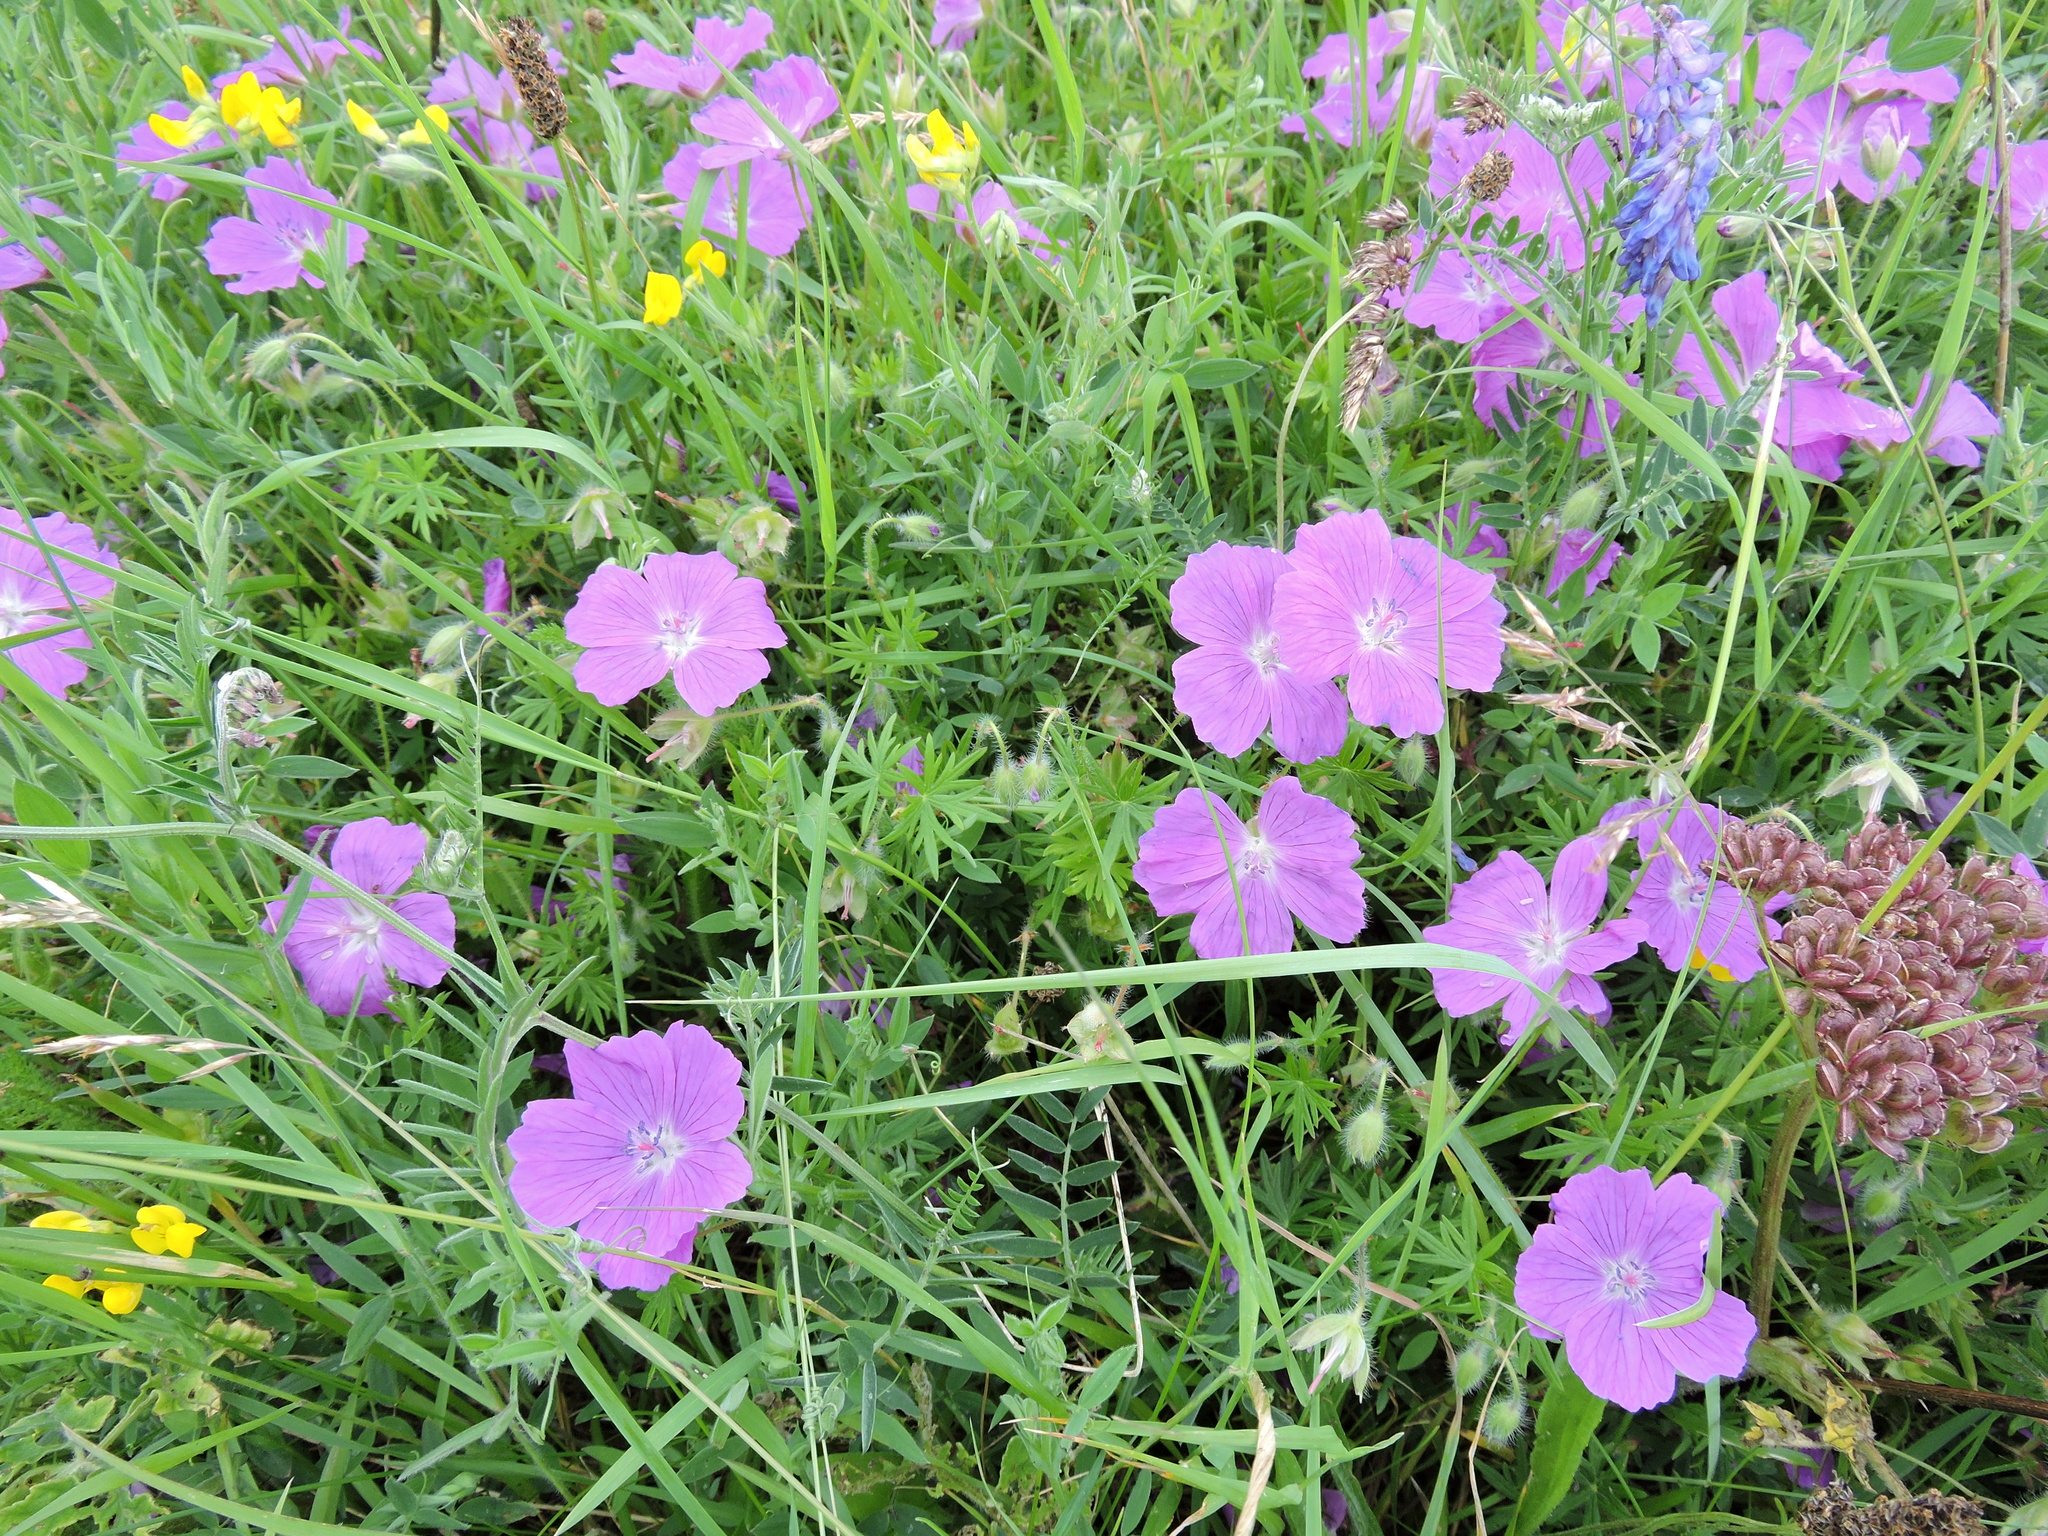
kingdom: Plantae
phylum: Tracheophyta
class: Magnoliopsida
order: Geraniales
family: Geraniaceae
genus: Geranium
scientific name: Geranium sanguineum
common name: Bloody crane's-bill
